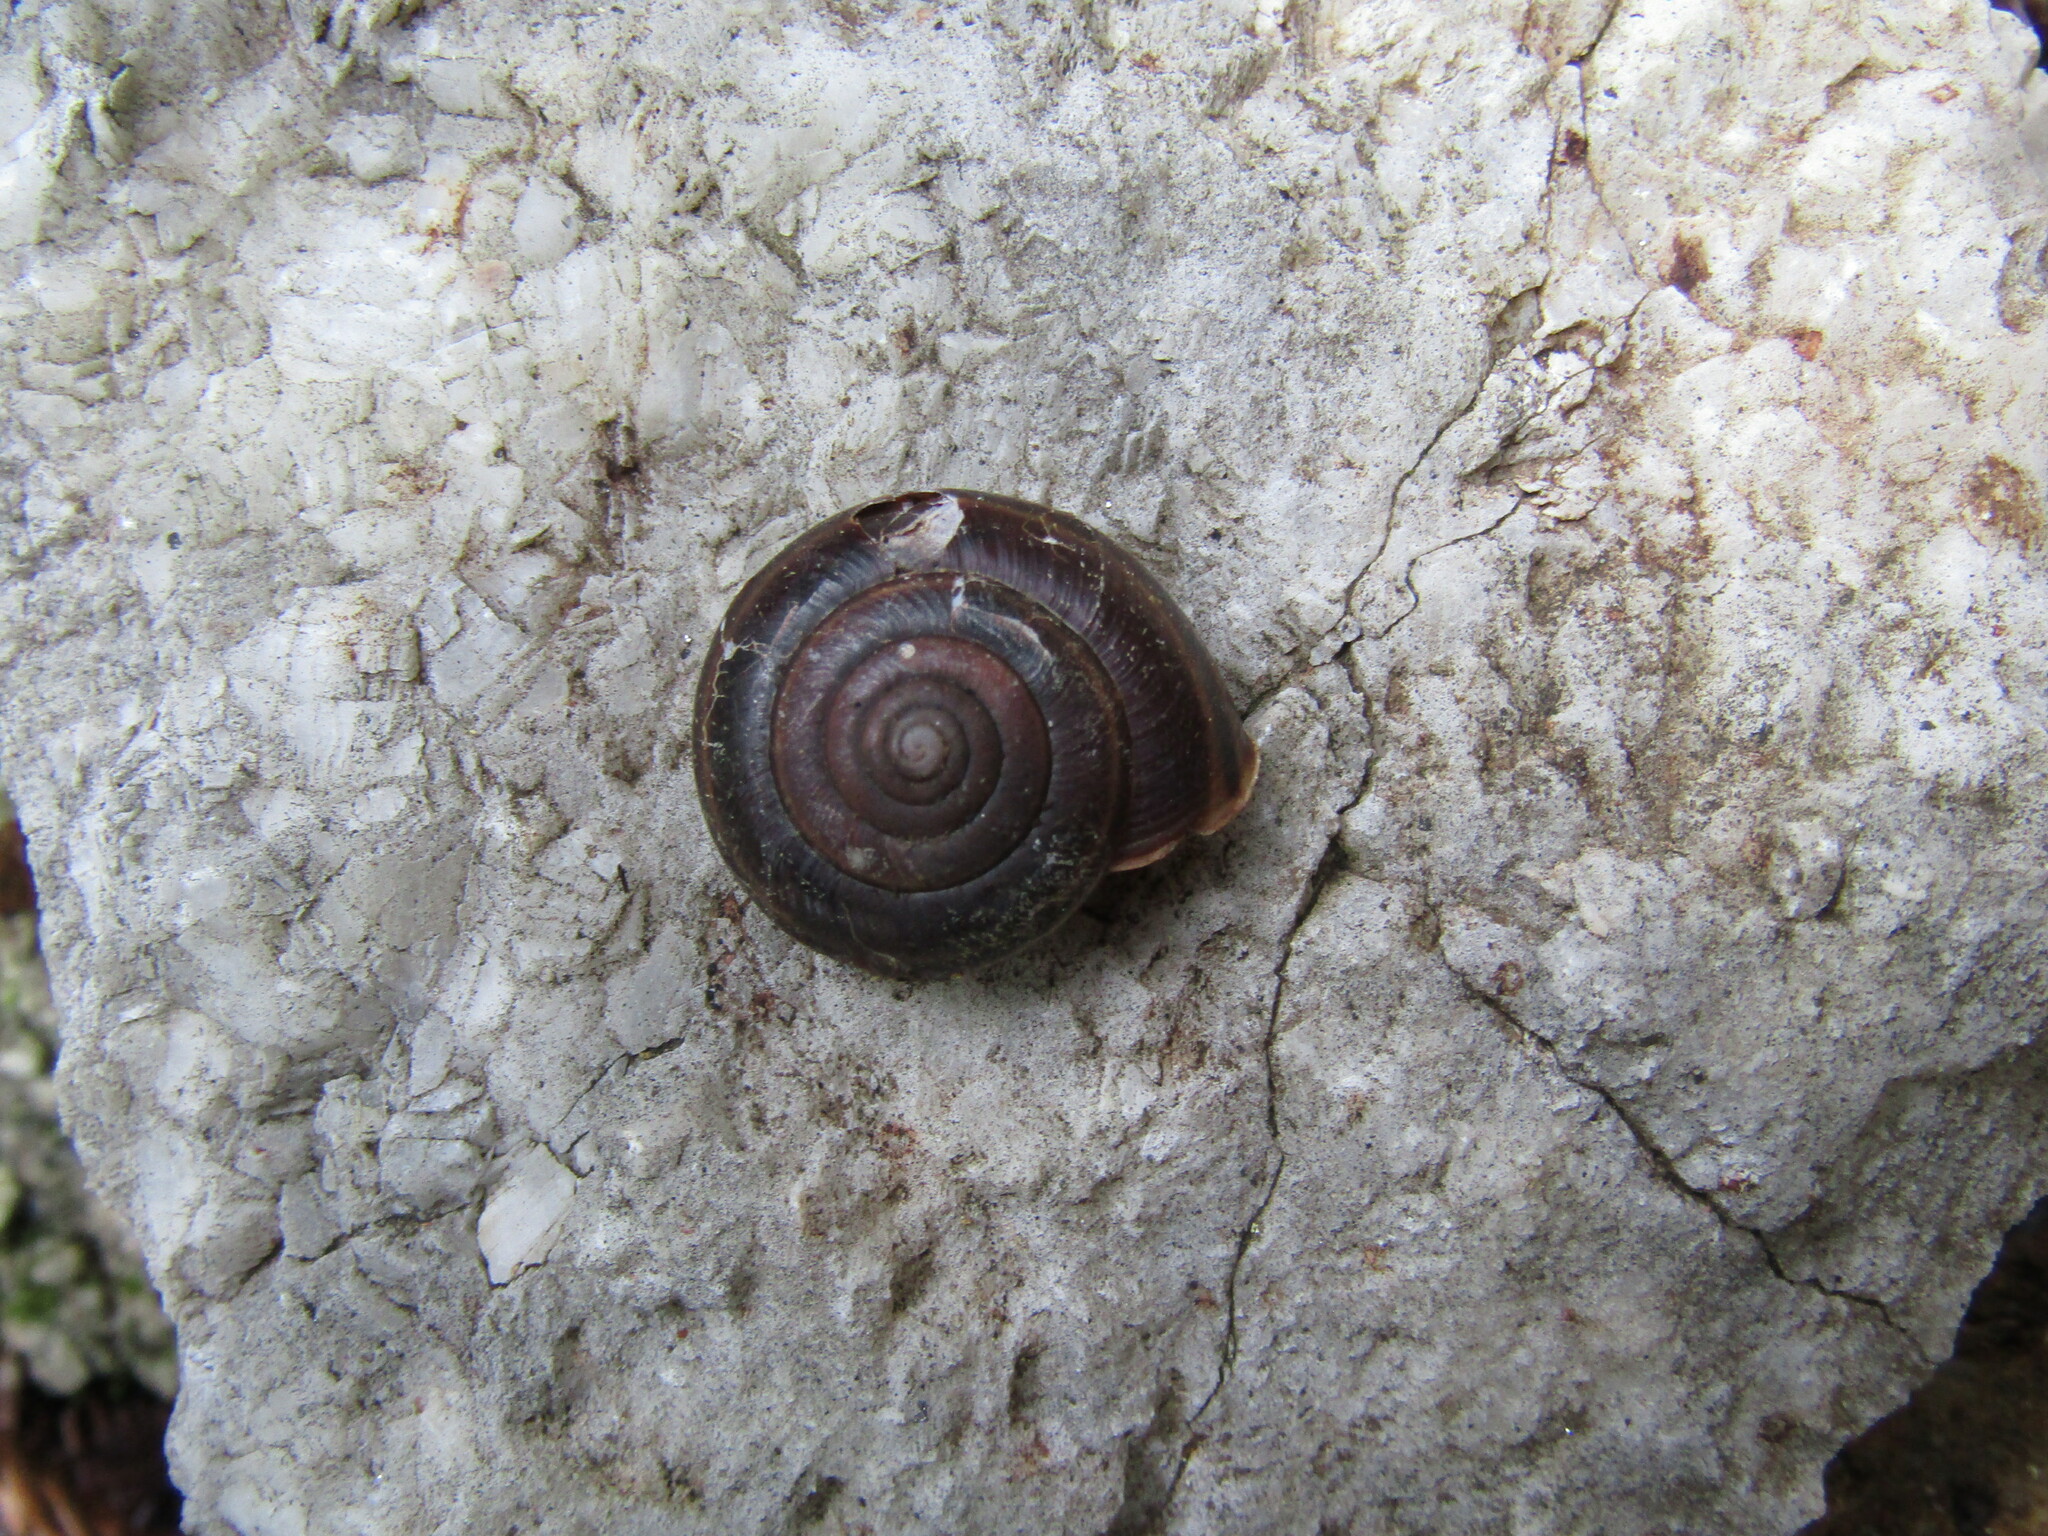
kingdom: Animalia
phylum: Mollusca
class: Gastropoda
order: Stylommatophora
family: Xanthonychidae
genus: Helminthoglypta
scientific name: Helminthoglypta sequoicola
